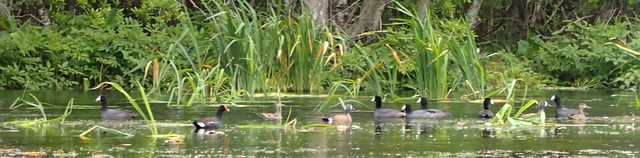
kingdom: Animalia
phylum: Chordata
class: Aves
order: Gruiformes
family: Rallidae
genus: Fulica
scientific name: Fulica americana
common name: American coot
